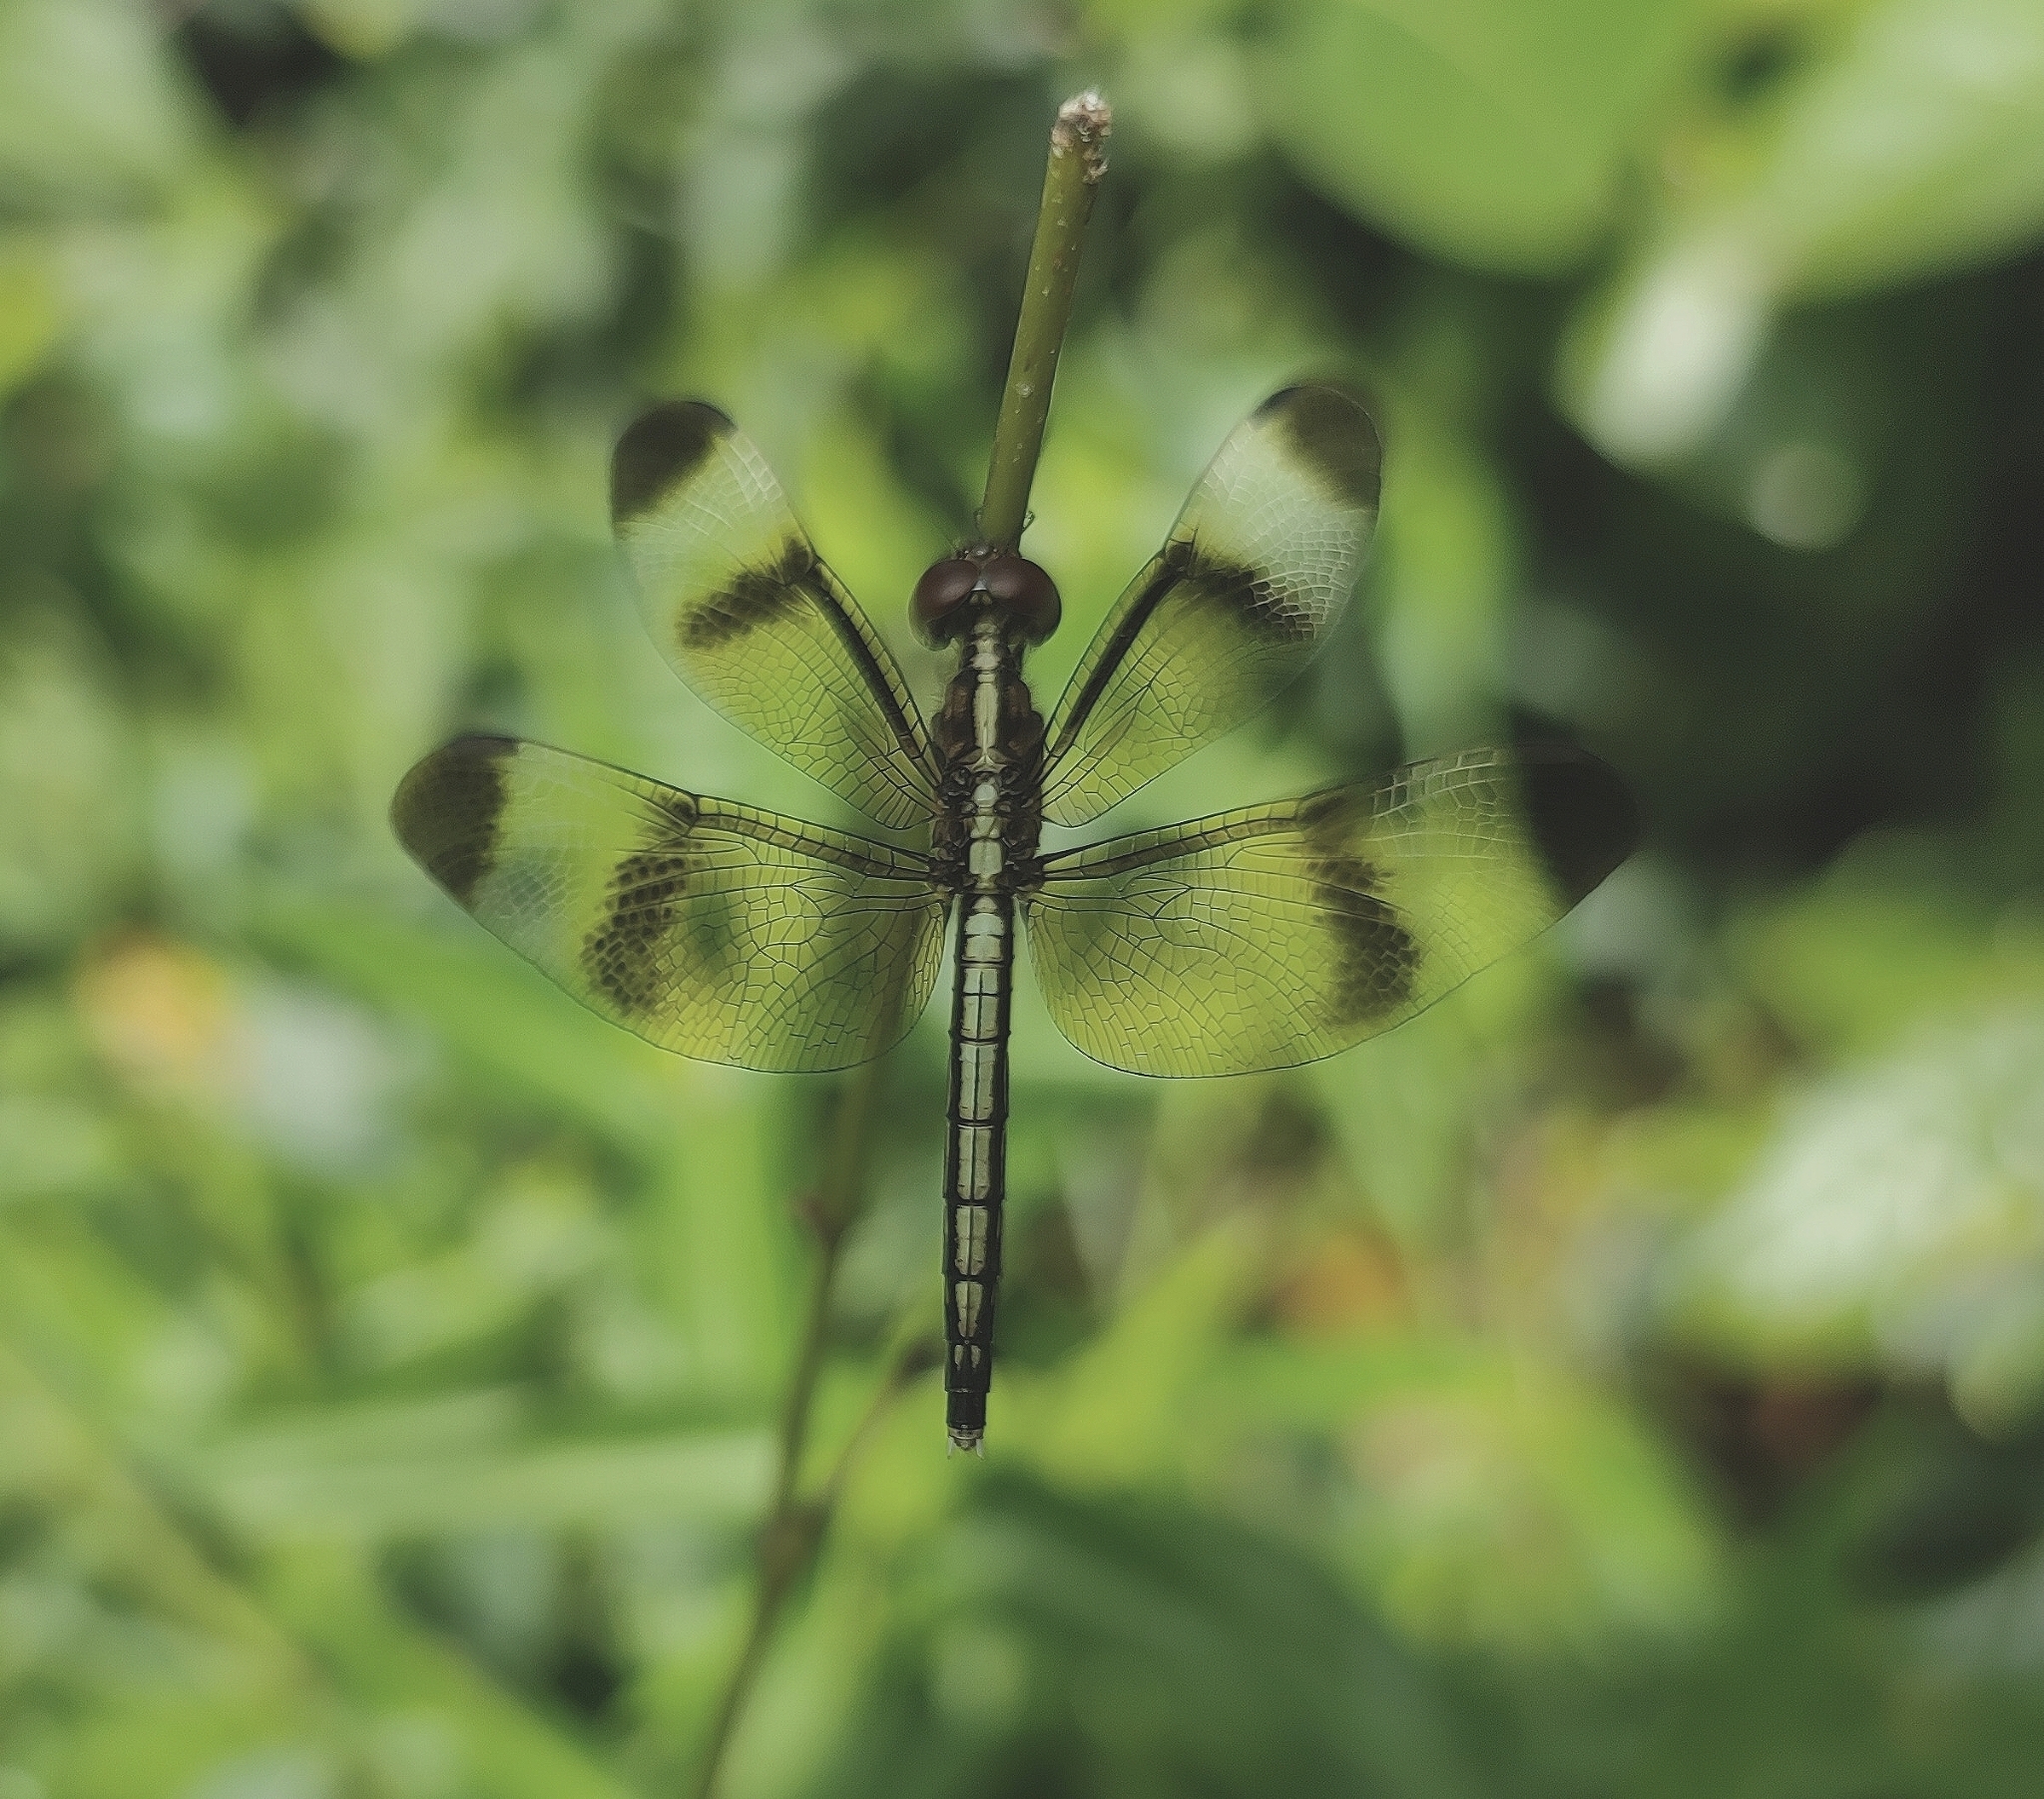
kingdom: Animalia
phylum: Arthropoda
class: Insecta
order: Odonata
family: Libellulidae
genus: Neurothemis
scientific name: Neurothemis tullia
